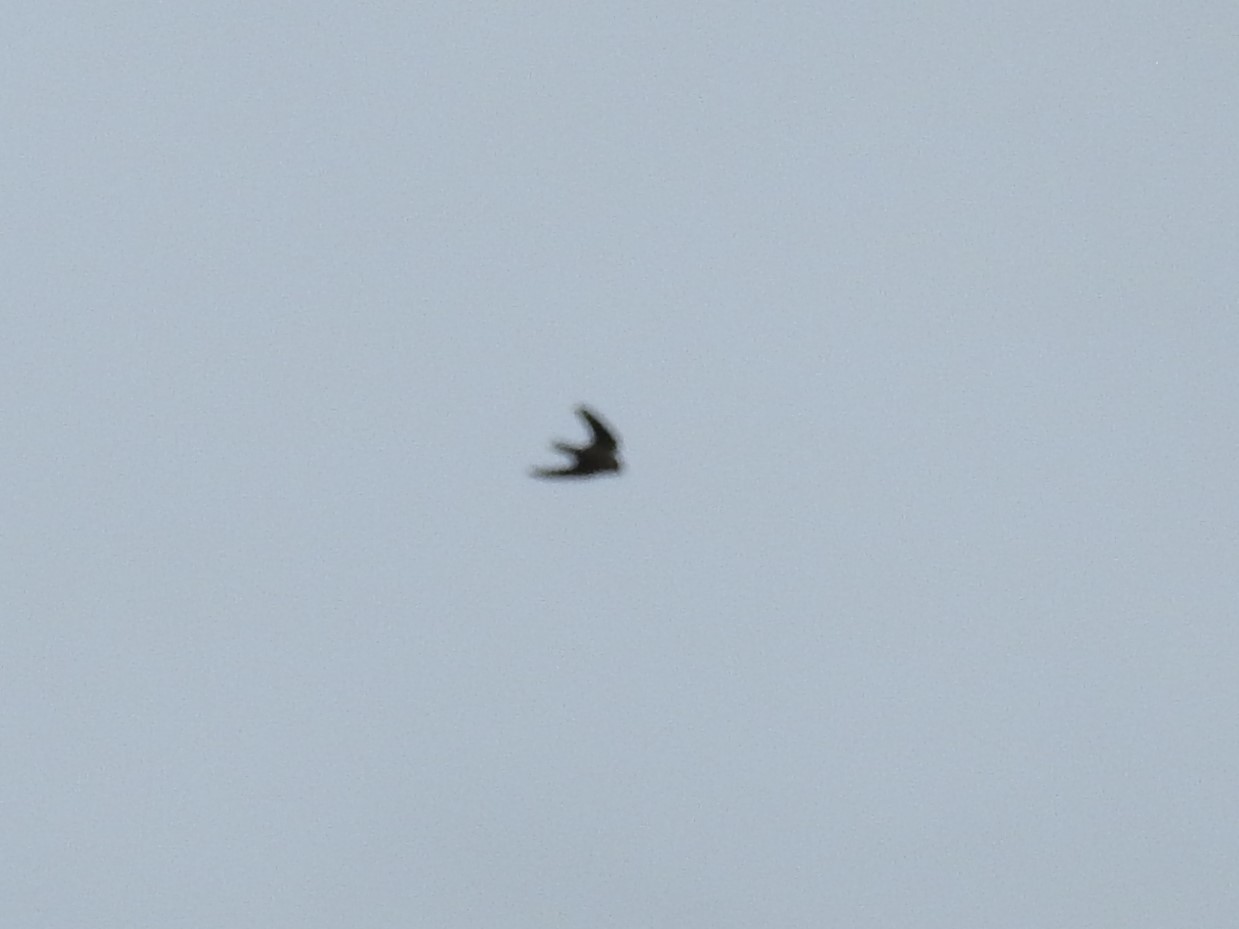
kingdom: Animalia
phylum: Chordata
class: Aves
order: Passeriformes
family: Hirundinidae
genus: Hirundo
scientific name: Hirundo rustica
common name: Barn swallow
